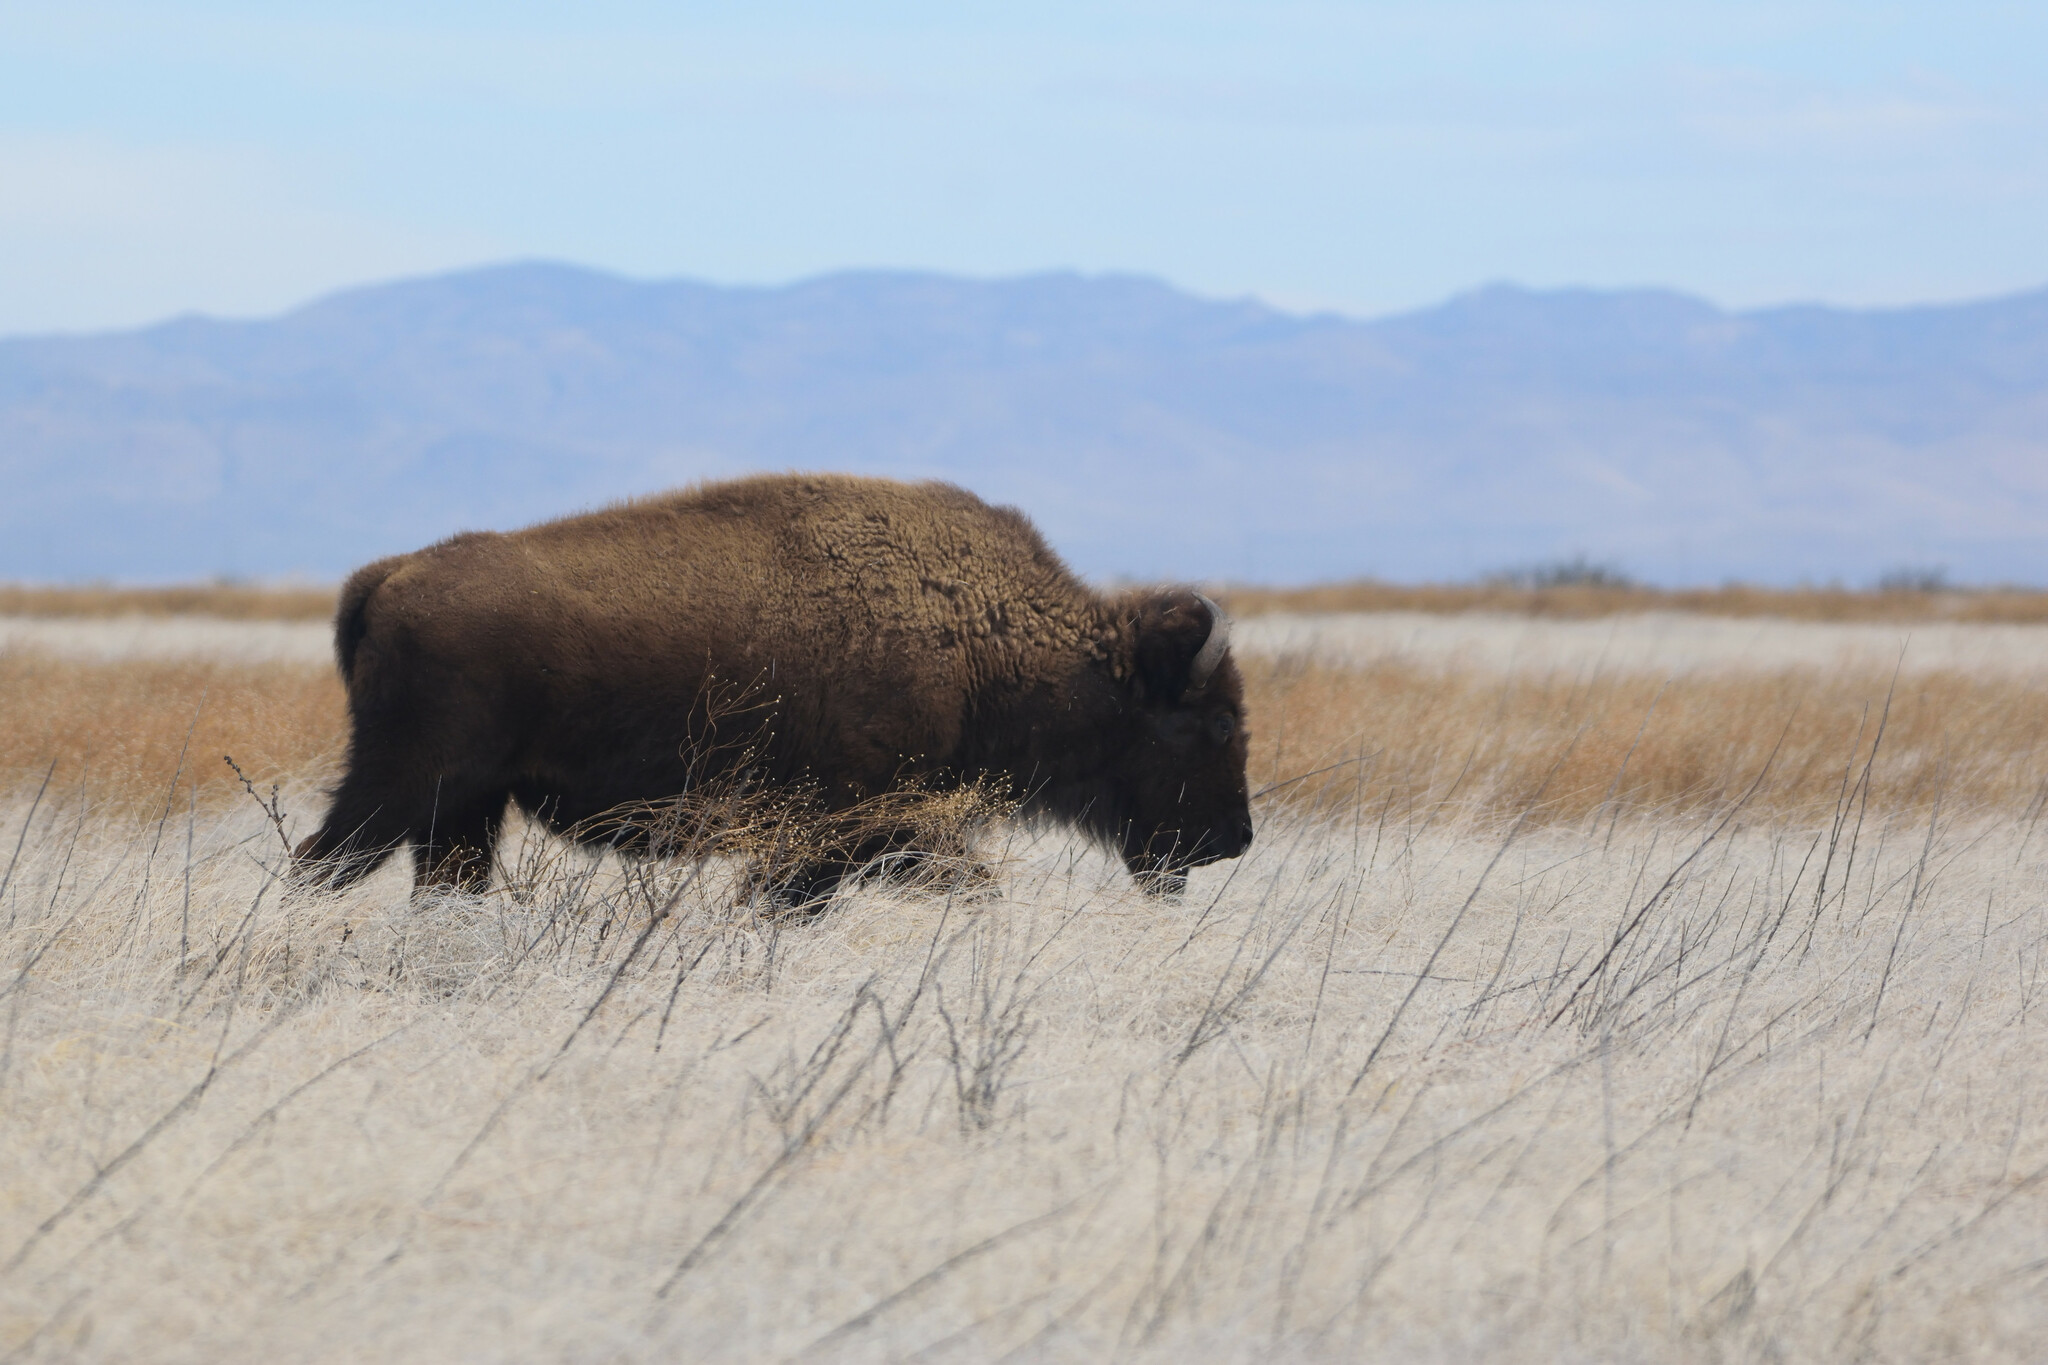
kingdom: Animalia
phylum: Chordata
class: Mammalia
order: Artiodactyla
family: Bovidae
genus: Bison
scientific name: Bison bison
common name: American bison
